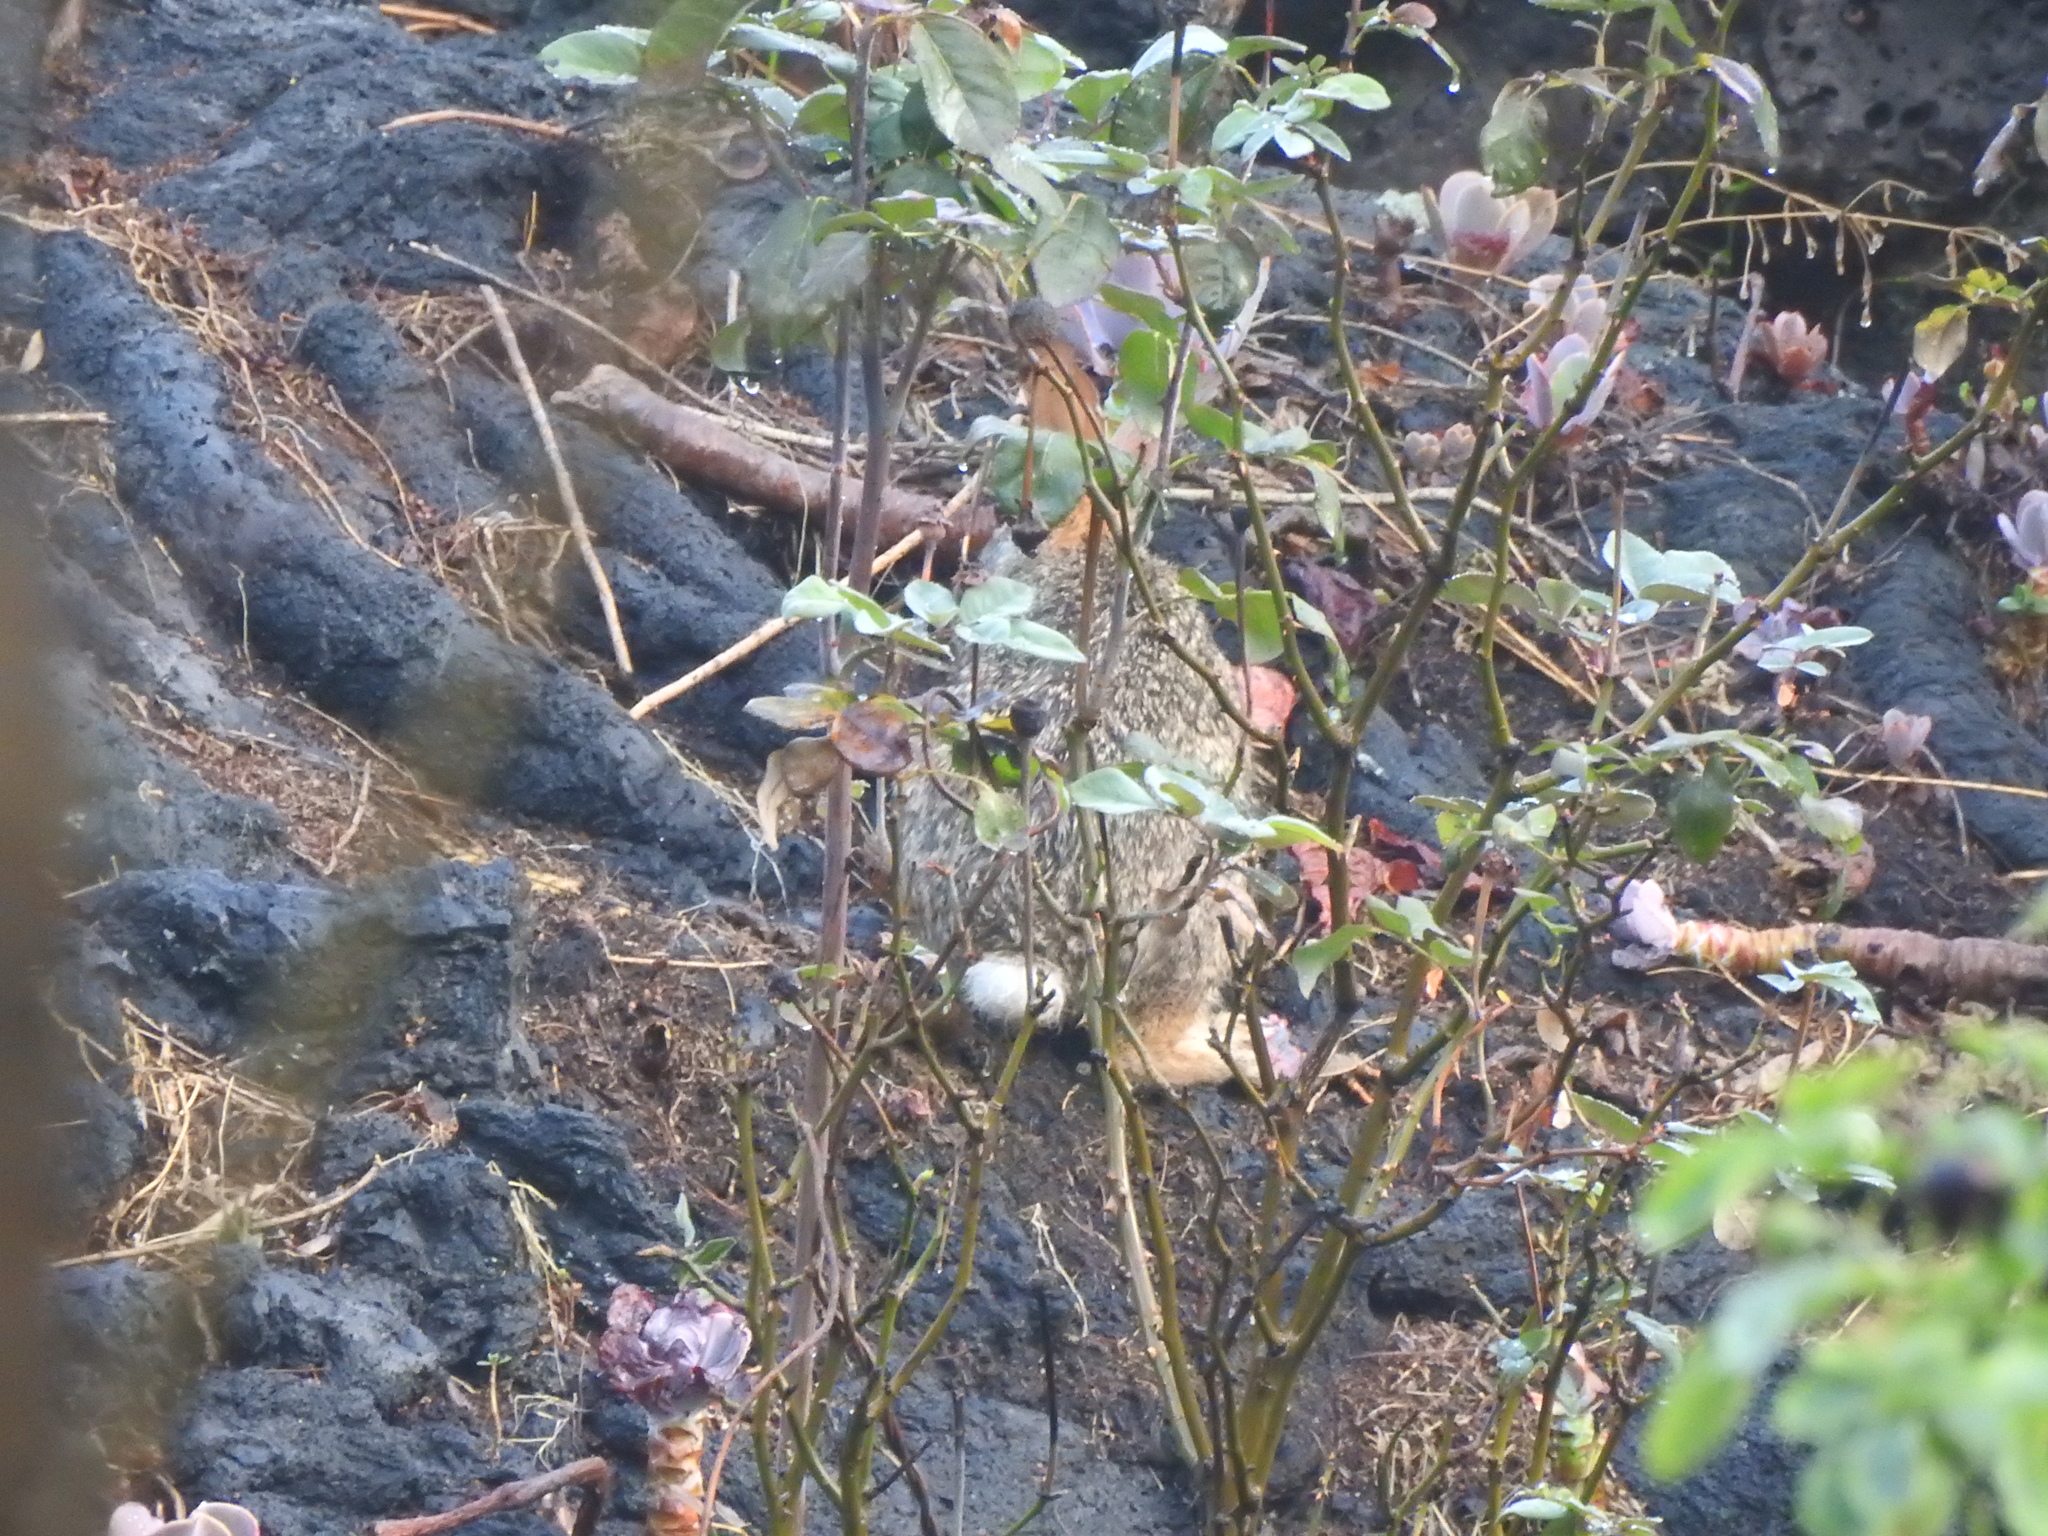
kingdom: Animalia
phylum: Chordata
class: Mammalia
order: Lagomorpha
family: Leporidae
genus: Sylvilagus
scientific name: Sylvilagus floridanus
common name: Eastern cottontail
